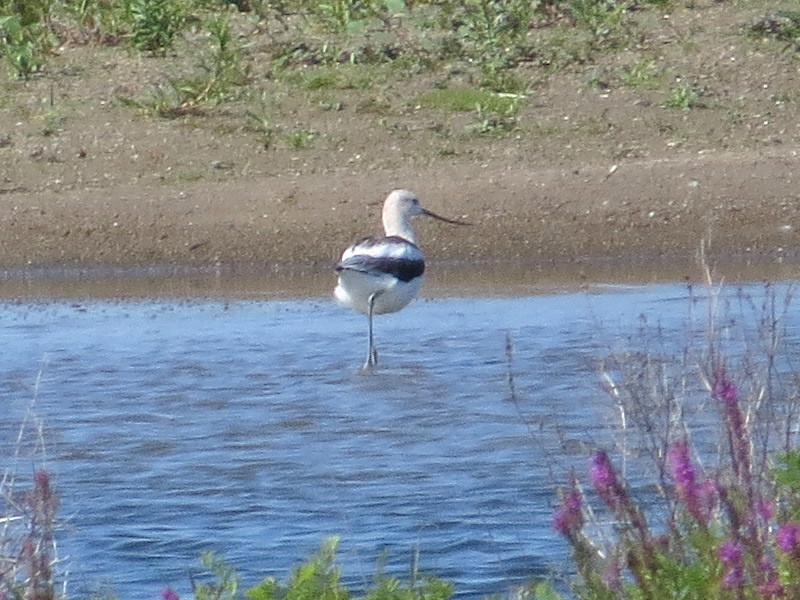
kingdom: Animalia
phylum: Chordata
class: Aves
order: Charadriiformes
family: Recurvirostridae
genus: Recurvirostra
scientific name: Recurvirostra americana
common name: American avocet
